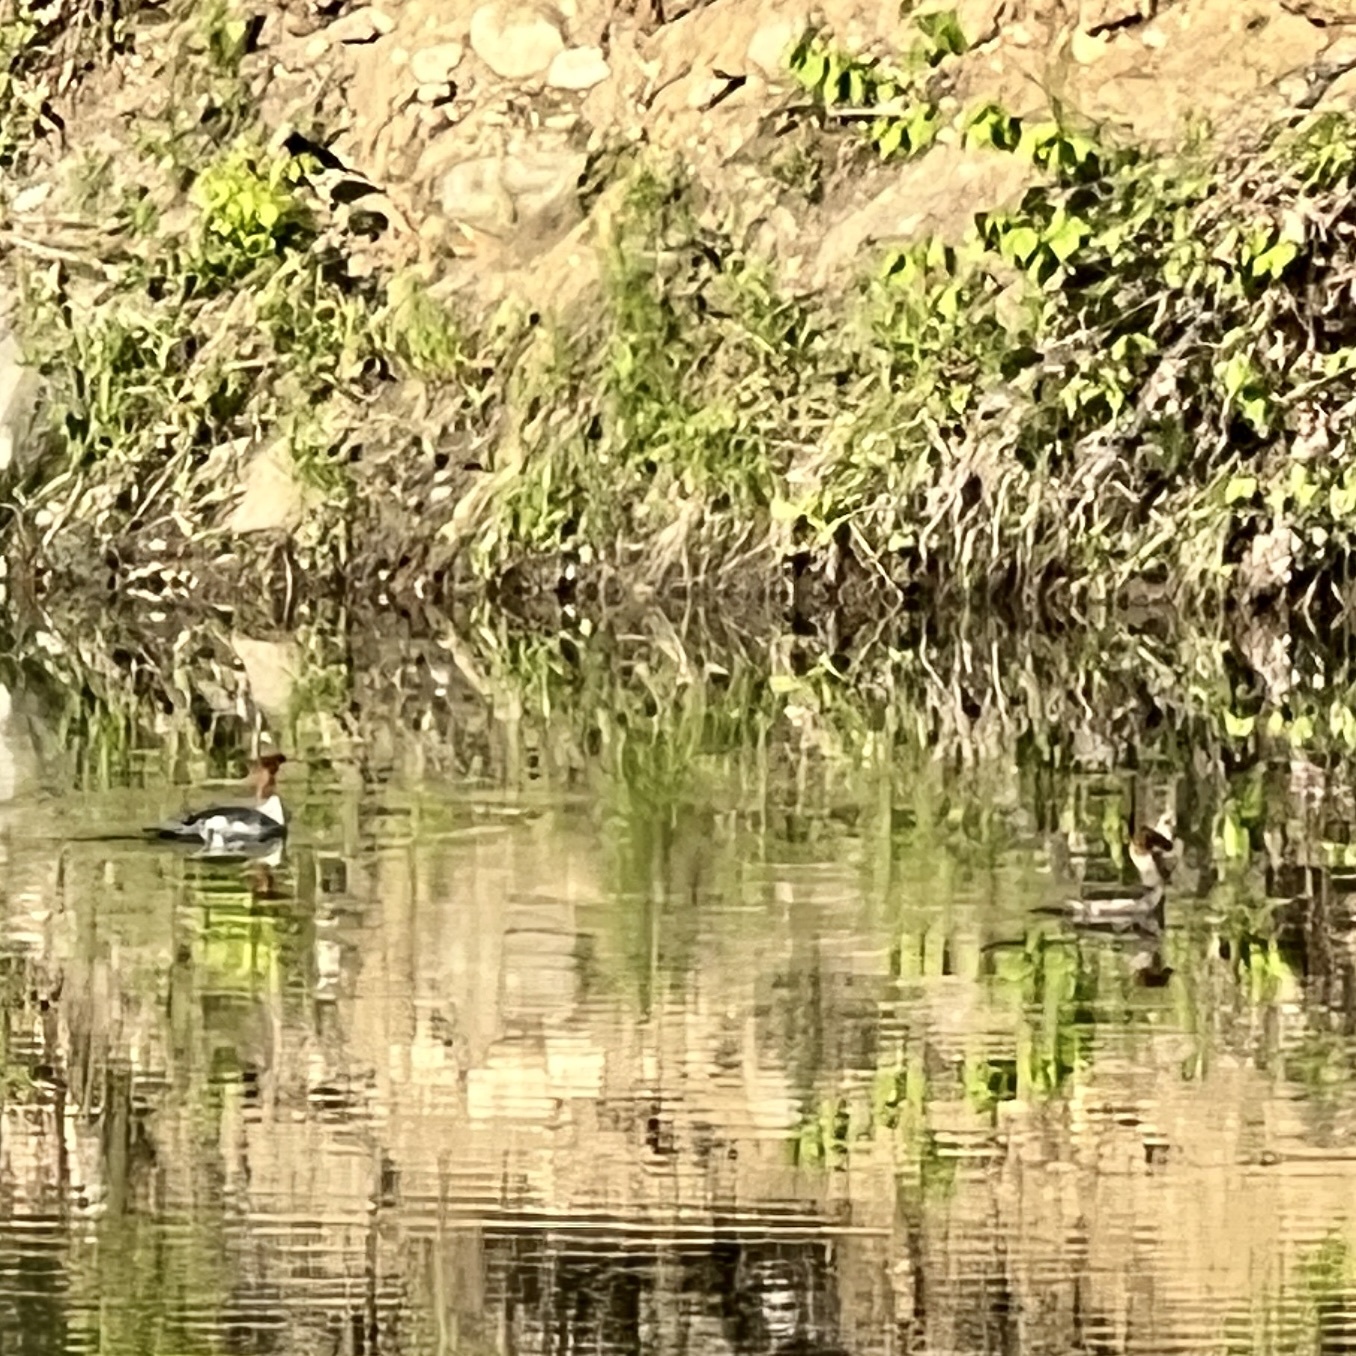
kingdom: Animalia
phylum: Chordata
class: Aves
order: Anseriformes
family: Anatidae
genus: Mergus
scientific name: Mergus merganser
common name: Common merganser
